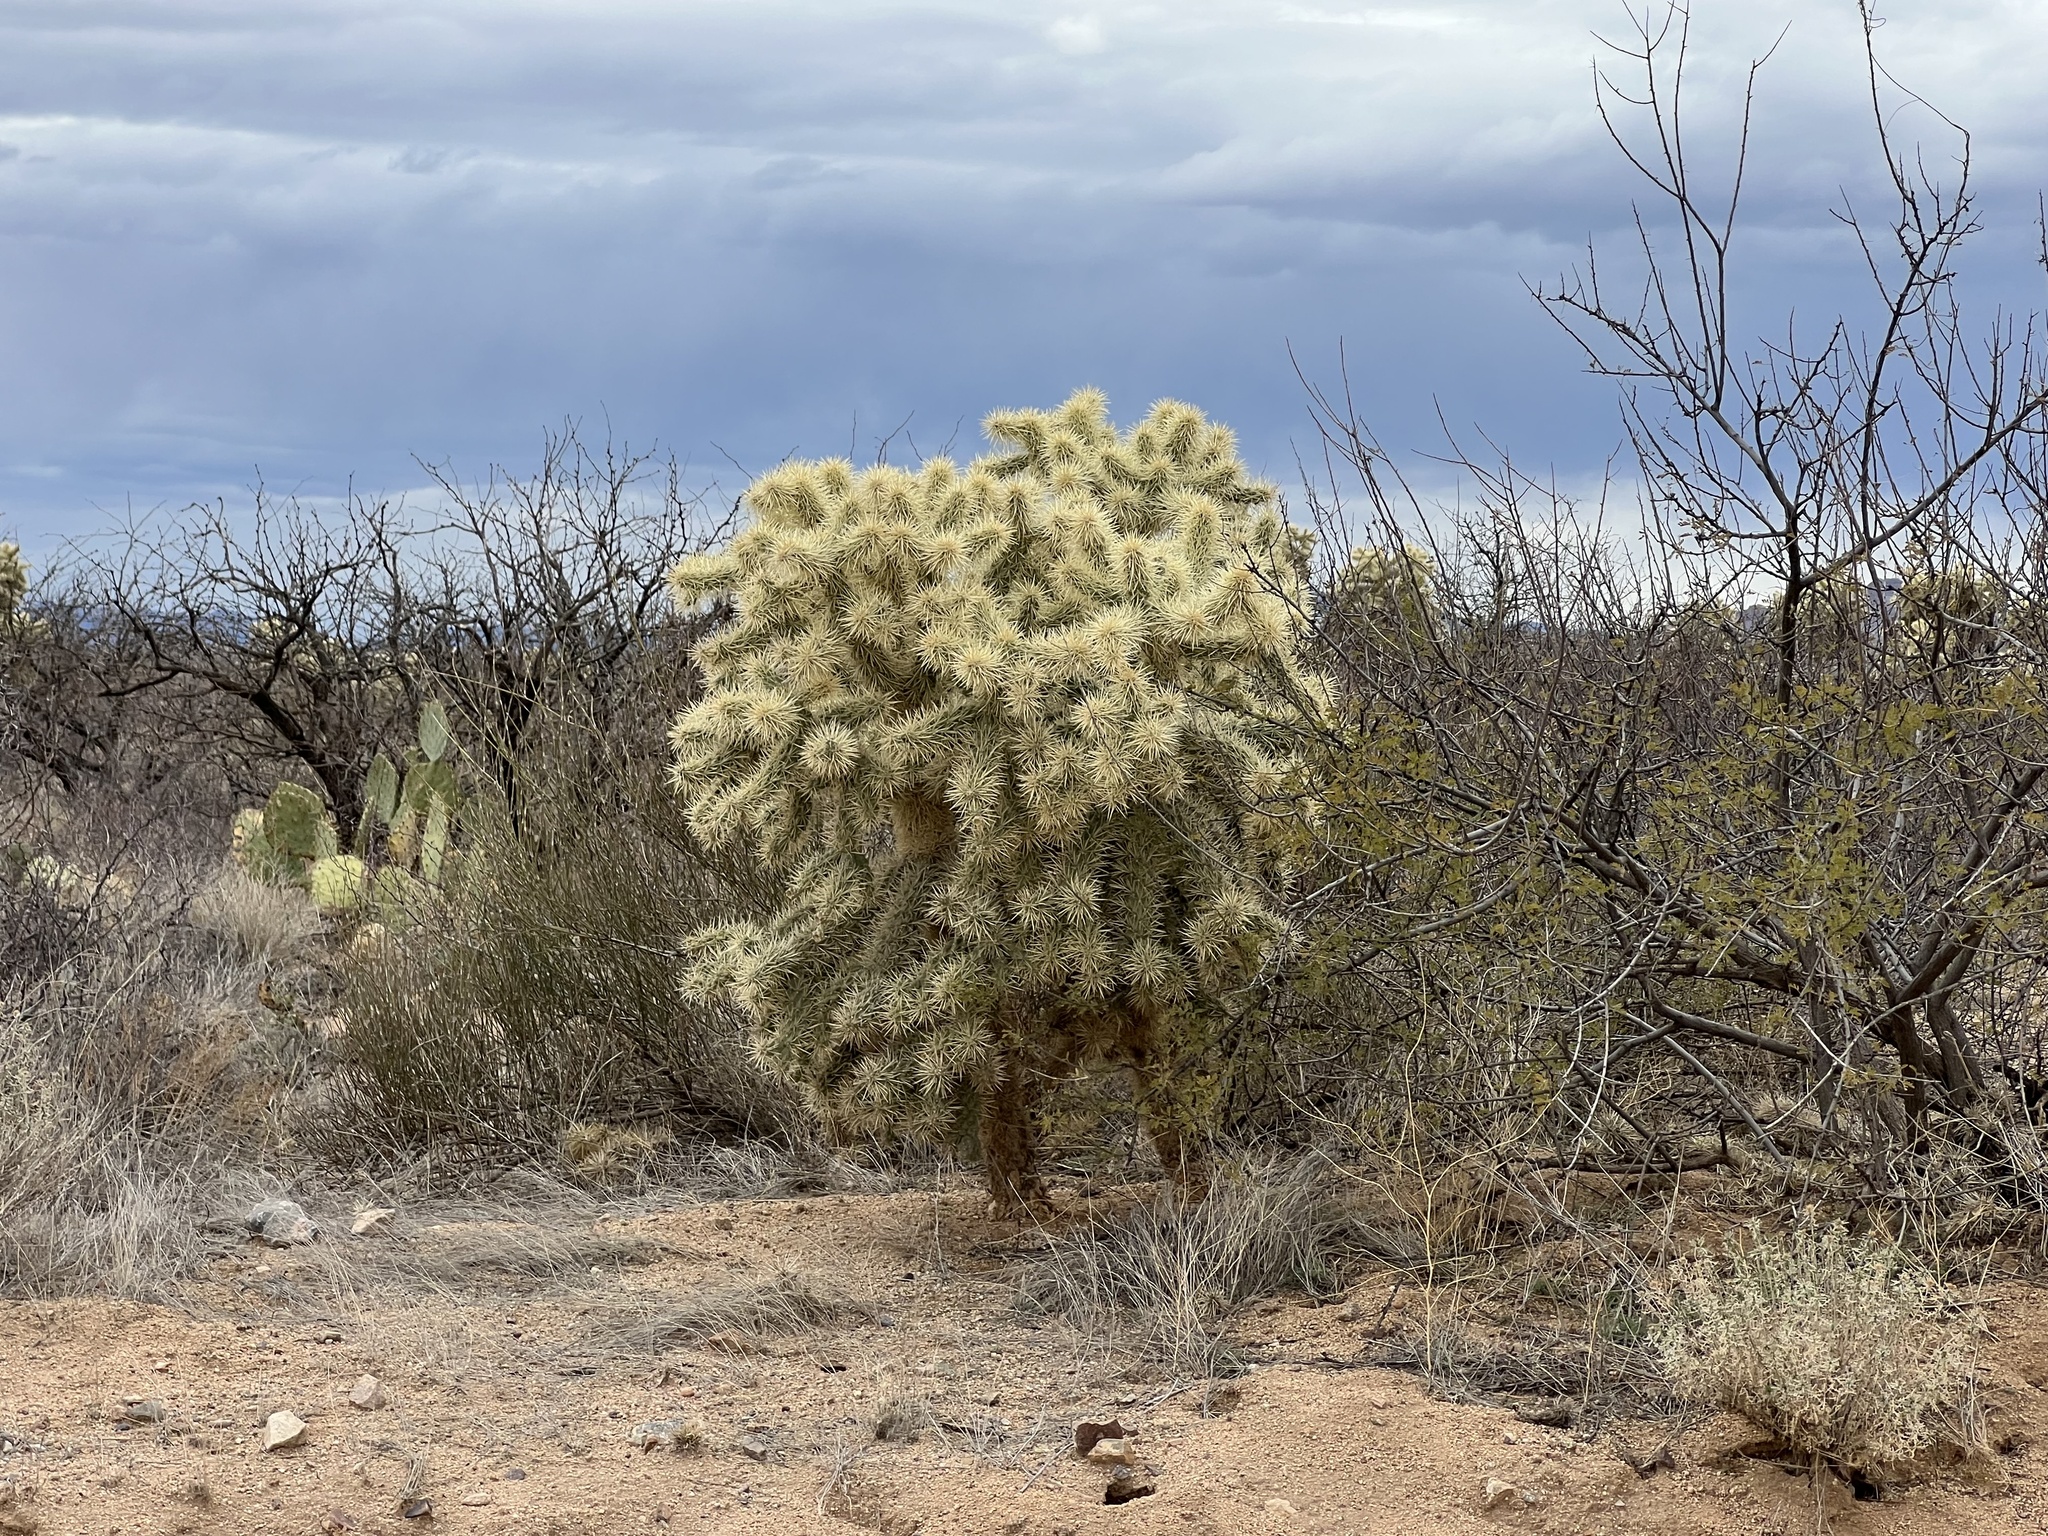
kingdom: Plantae
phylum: Tracheophyta
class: Magnoliopsida
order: Caryophyllales
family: Cactaceae
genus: Cylindropuntia
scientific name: Cylindropuntia fulgida
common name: Jumping cholla
